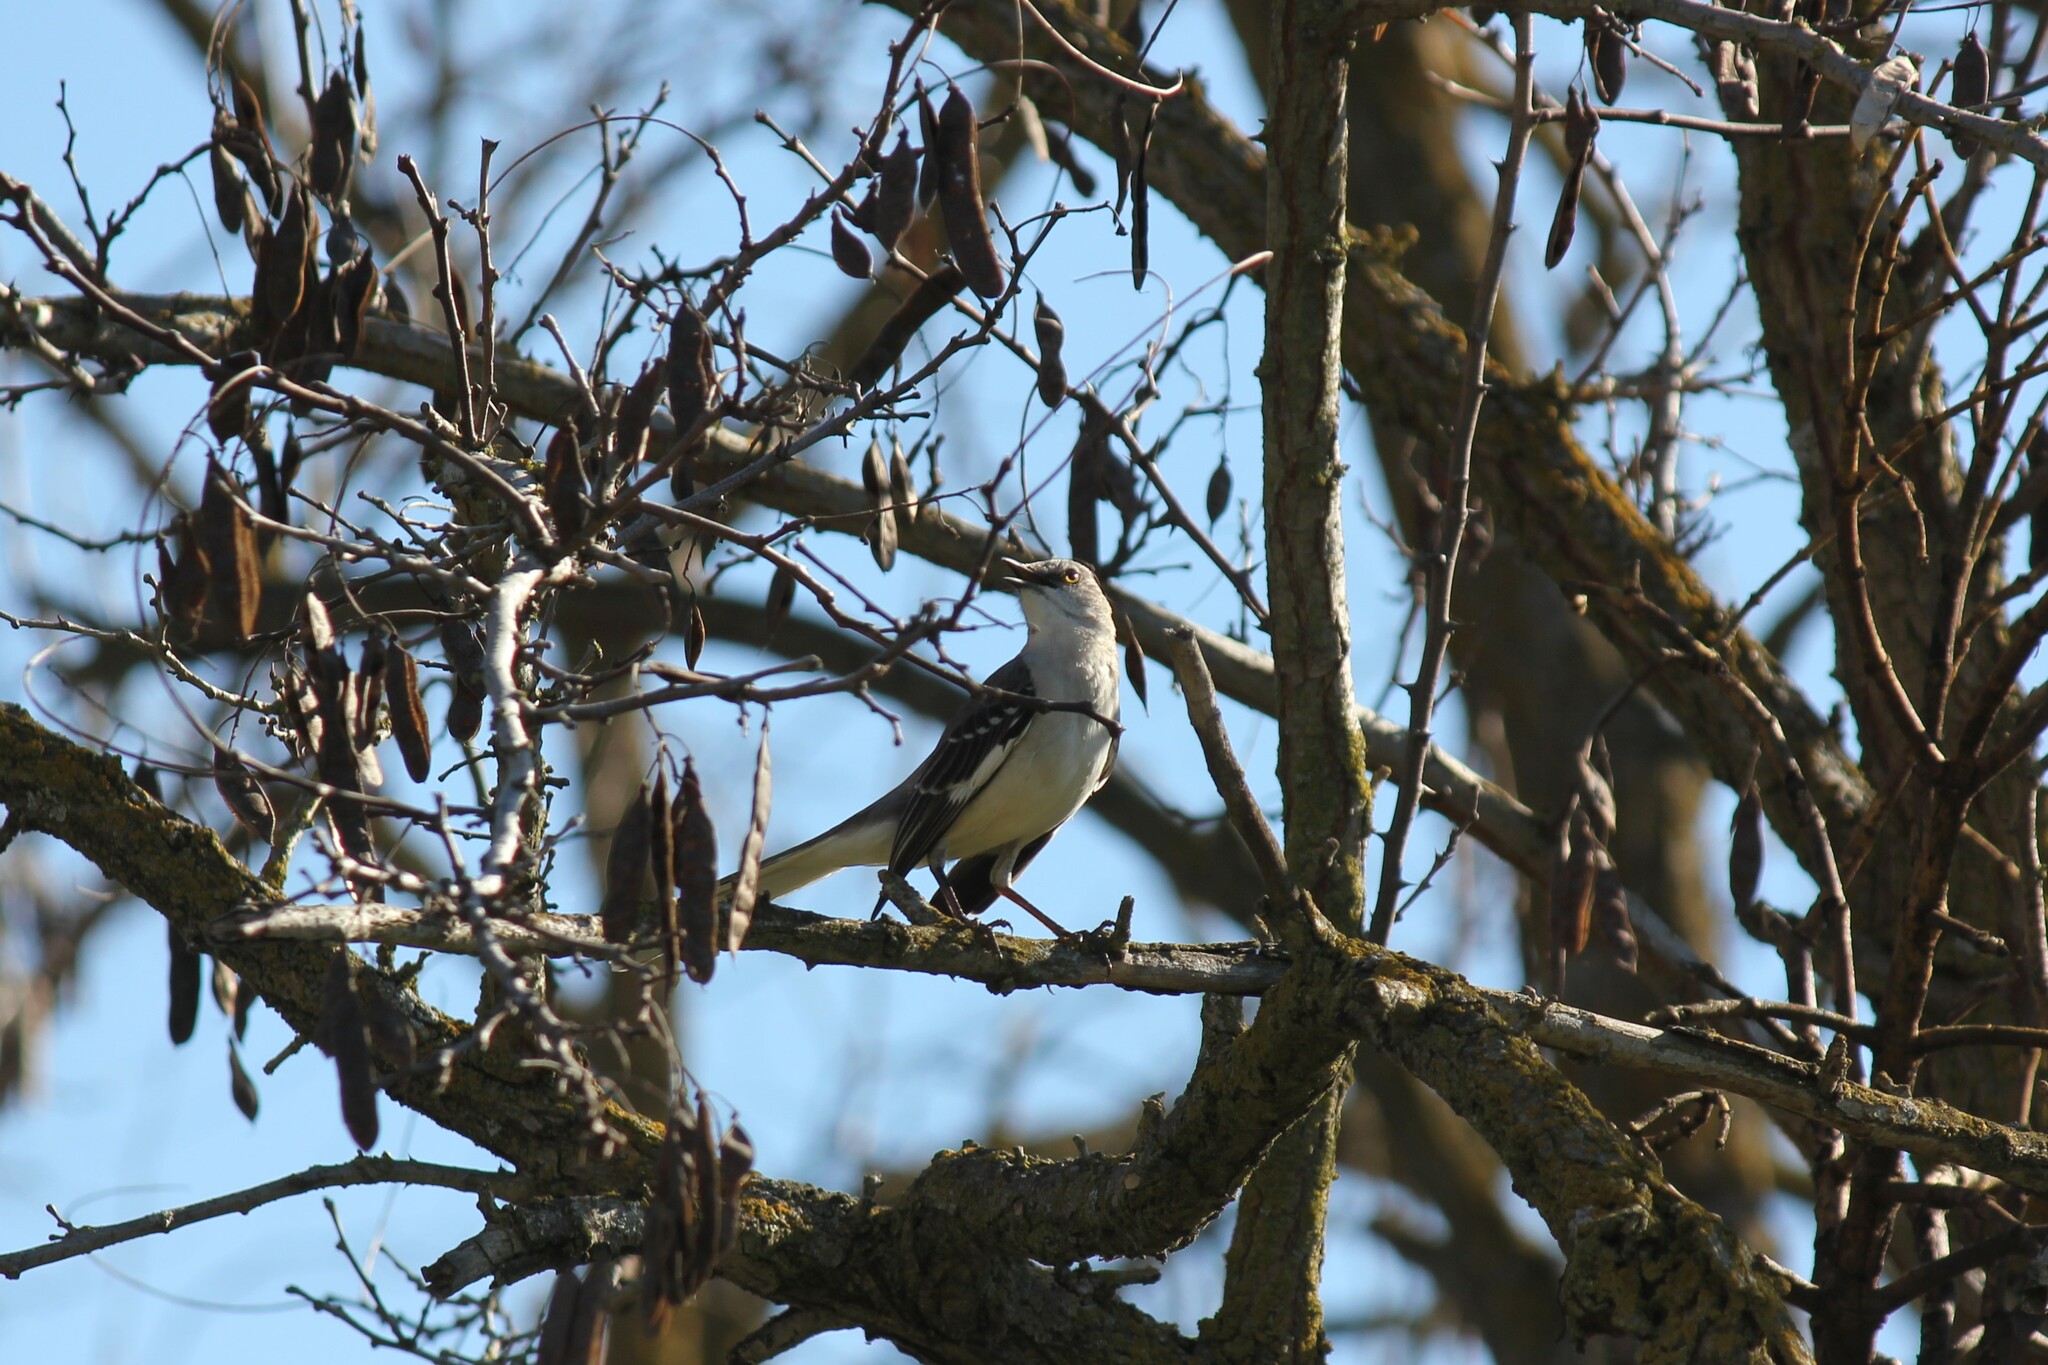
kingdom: Animalia
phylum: Chordata
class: Aves
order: Passeriformes
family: Mimidae
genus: Mimus
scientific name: Mimus polyglottos
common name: Northern mockingbird
